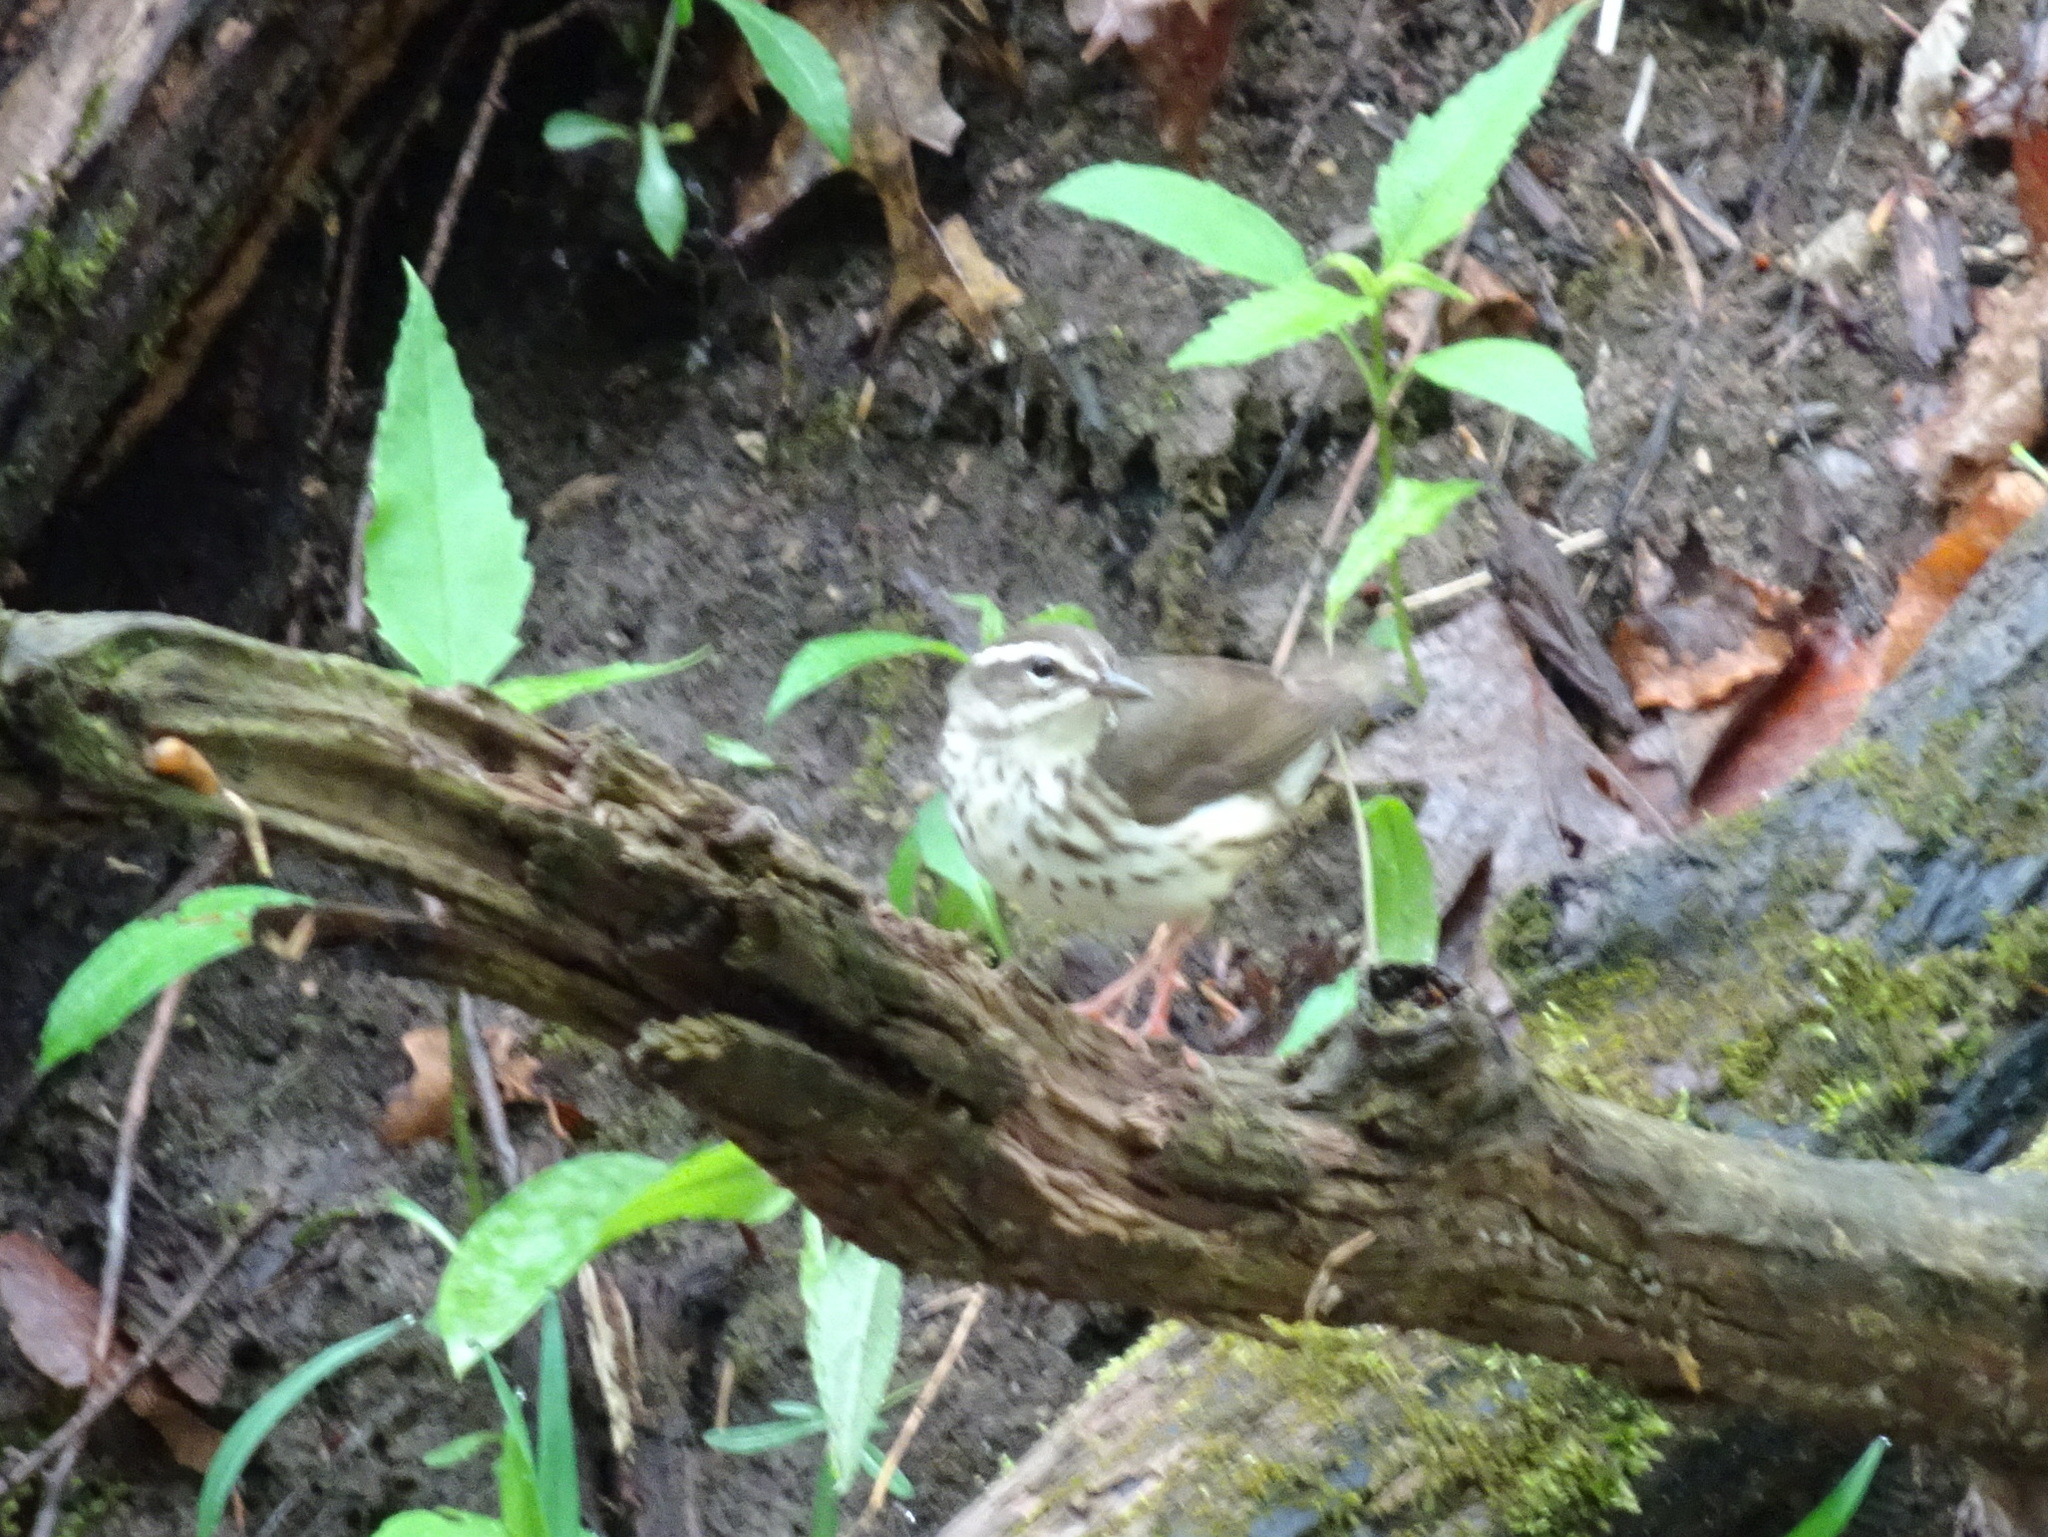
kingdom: Animalia
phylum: Chordata
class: Aves
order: Passeriformes
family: Parulidae
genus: Parkesia
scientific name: Parkesia motacilla
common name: Louisiana waterthrush
